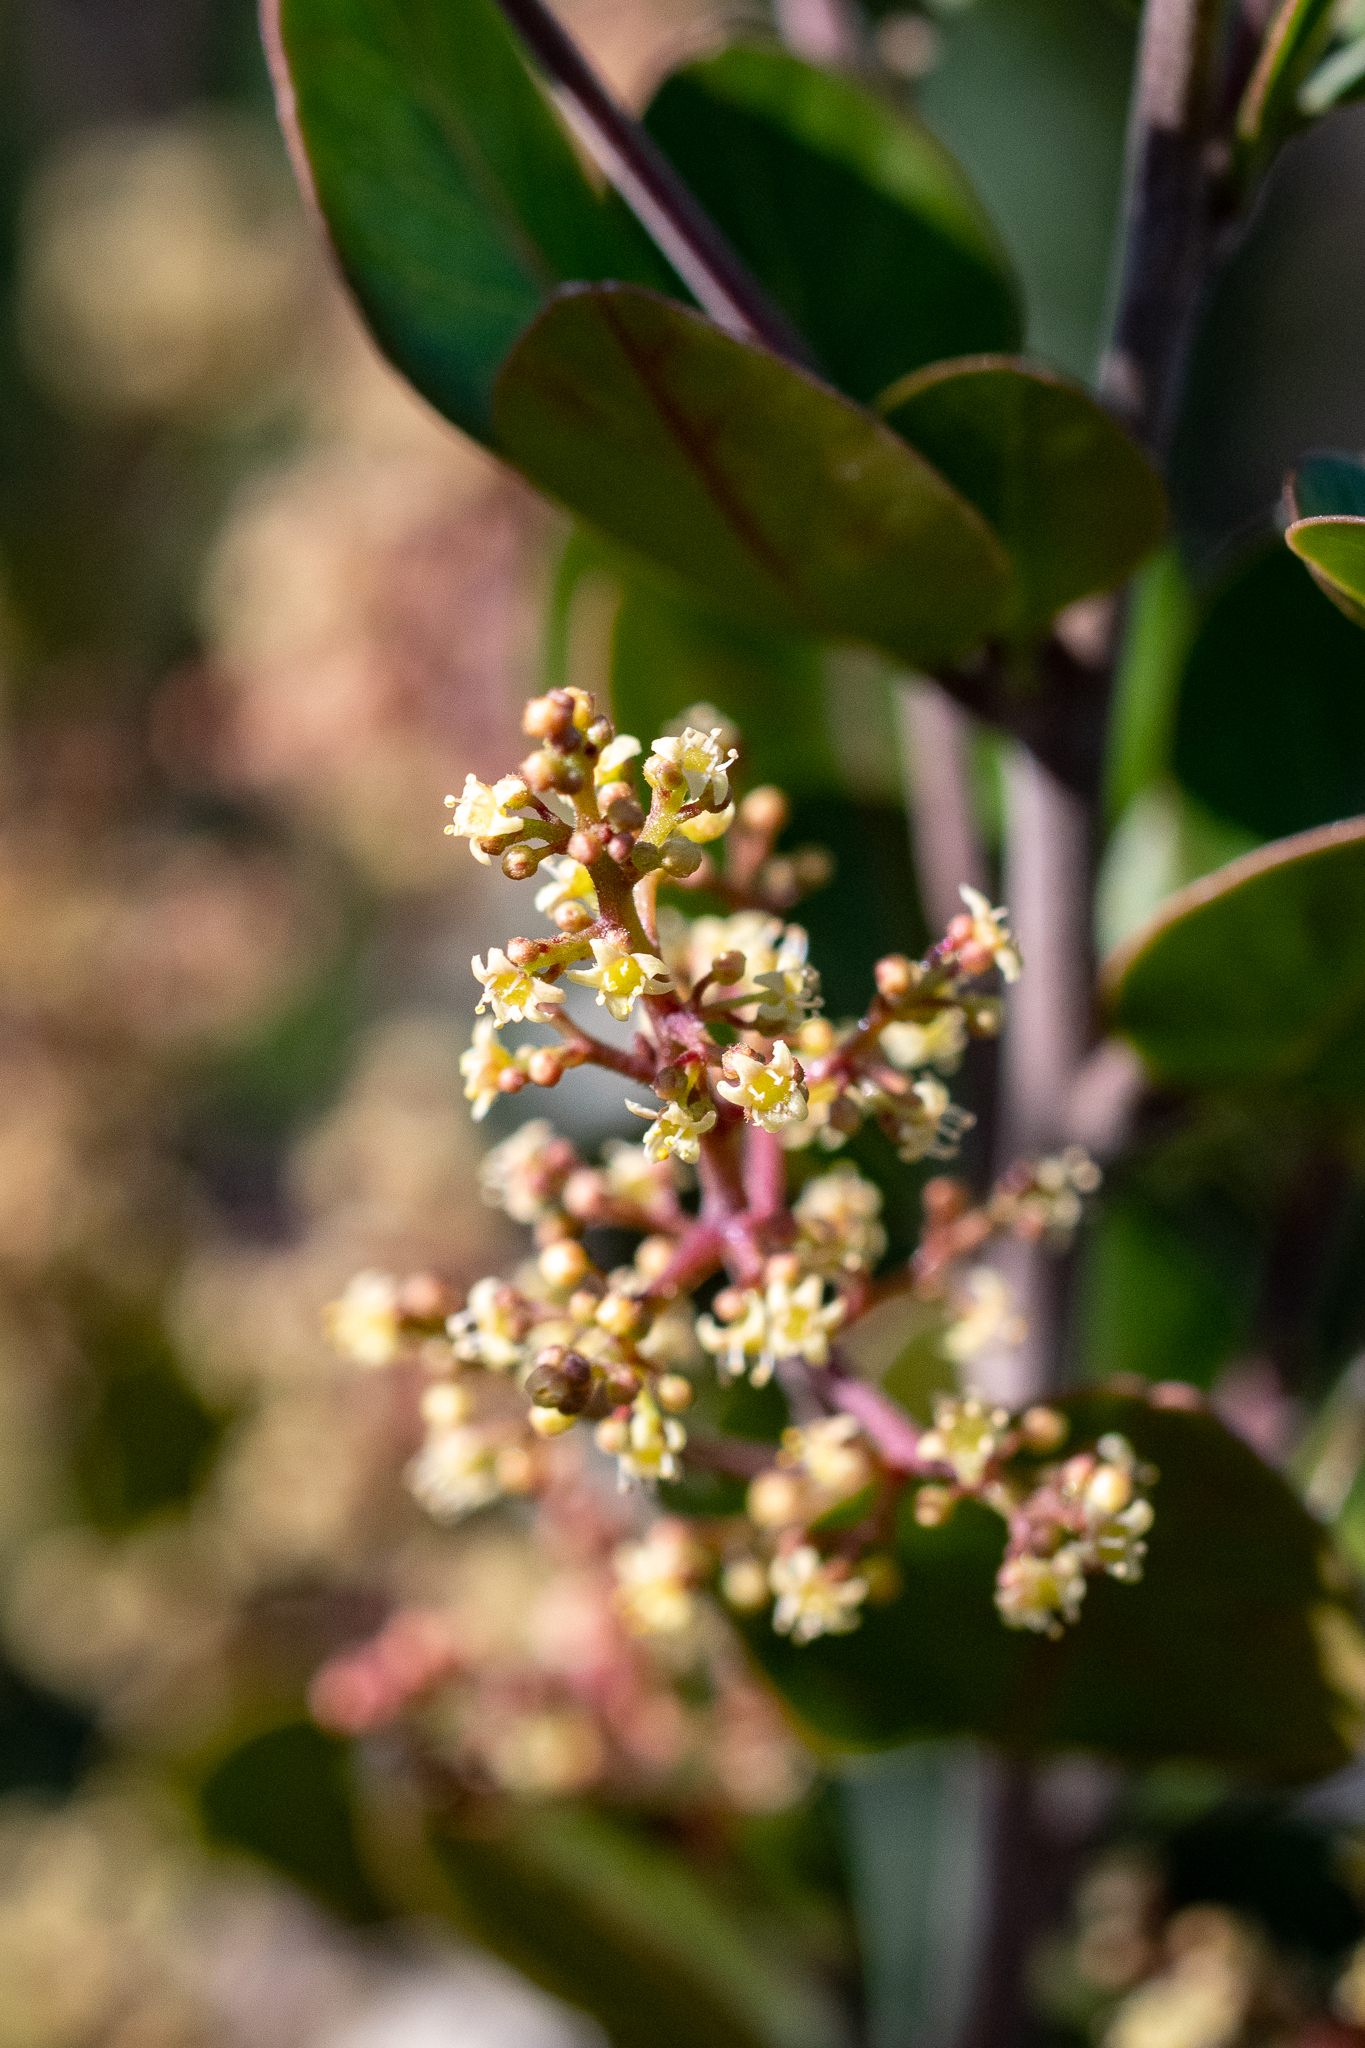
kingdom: Plantae
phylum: Tracheophyta
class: Magnoliopsida
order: Sapindales
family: Anacardiaceae
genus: Searsia
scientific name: Searsia lucida
